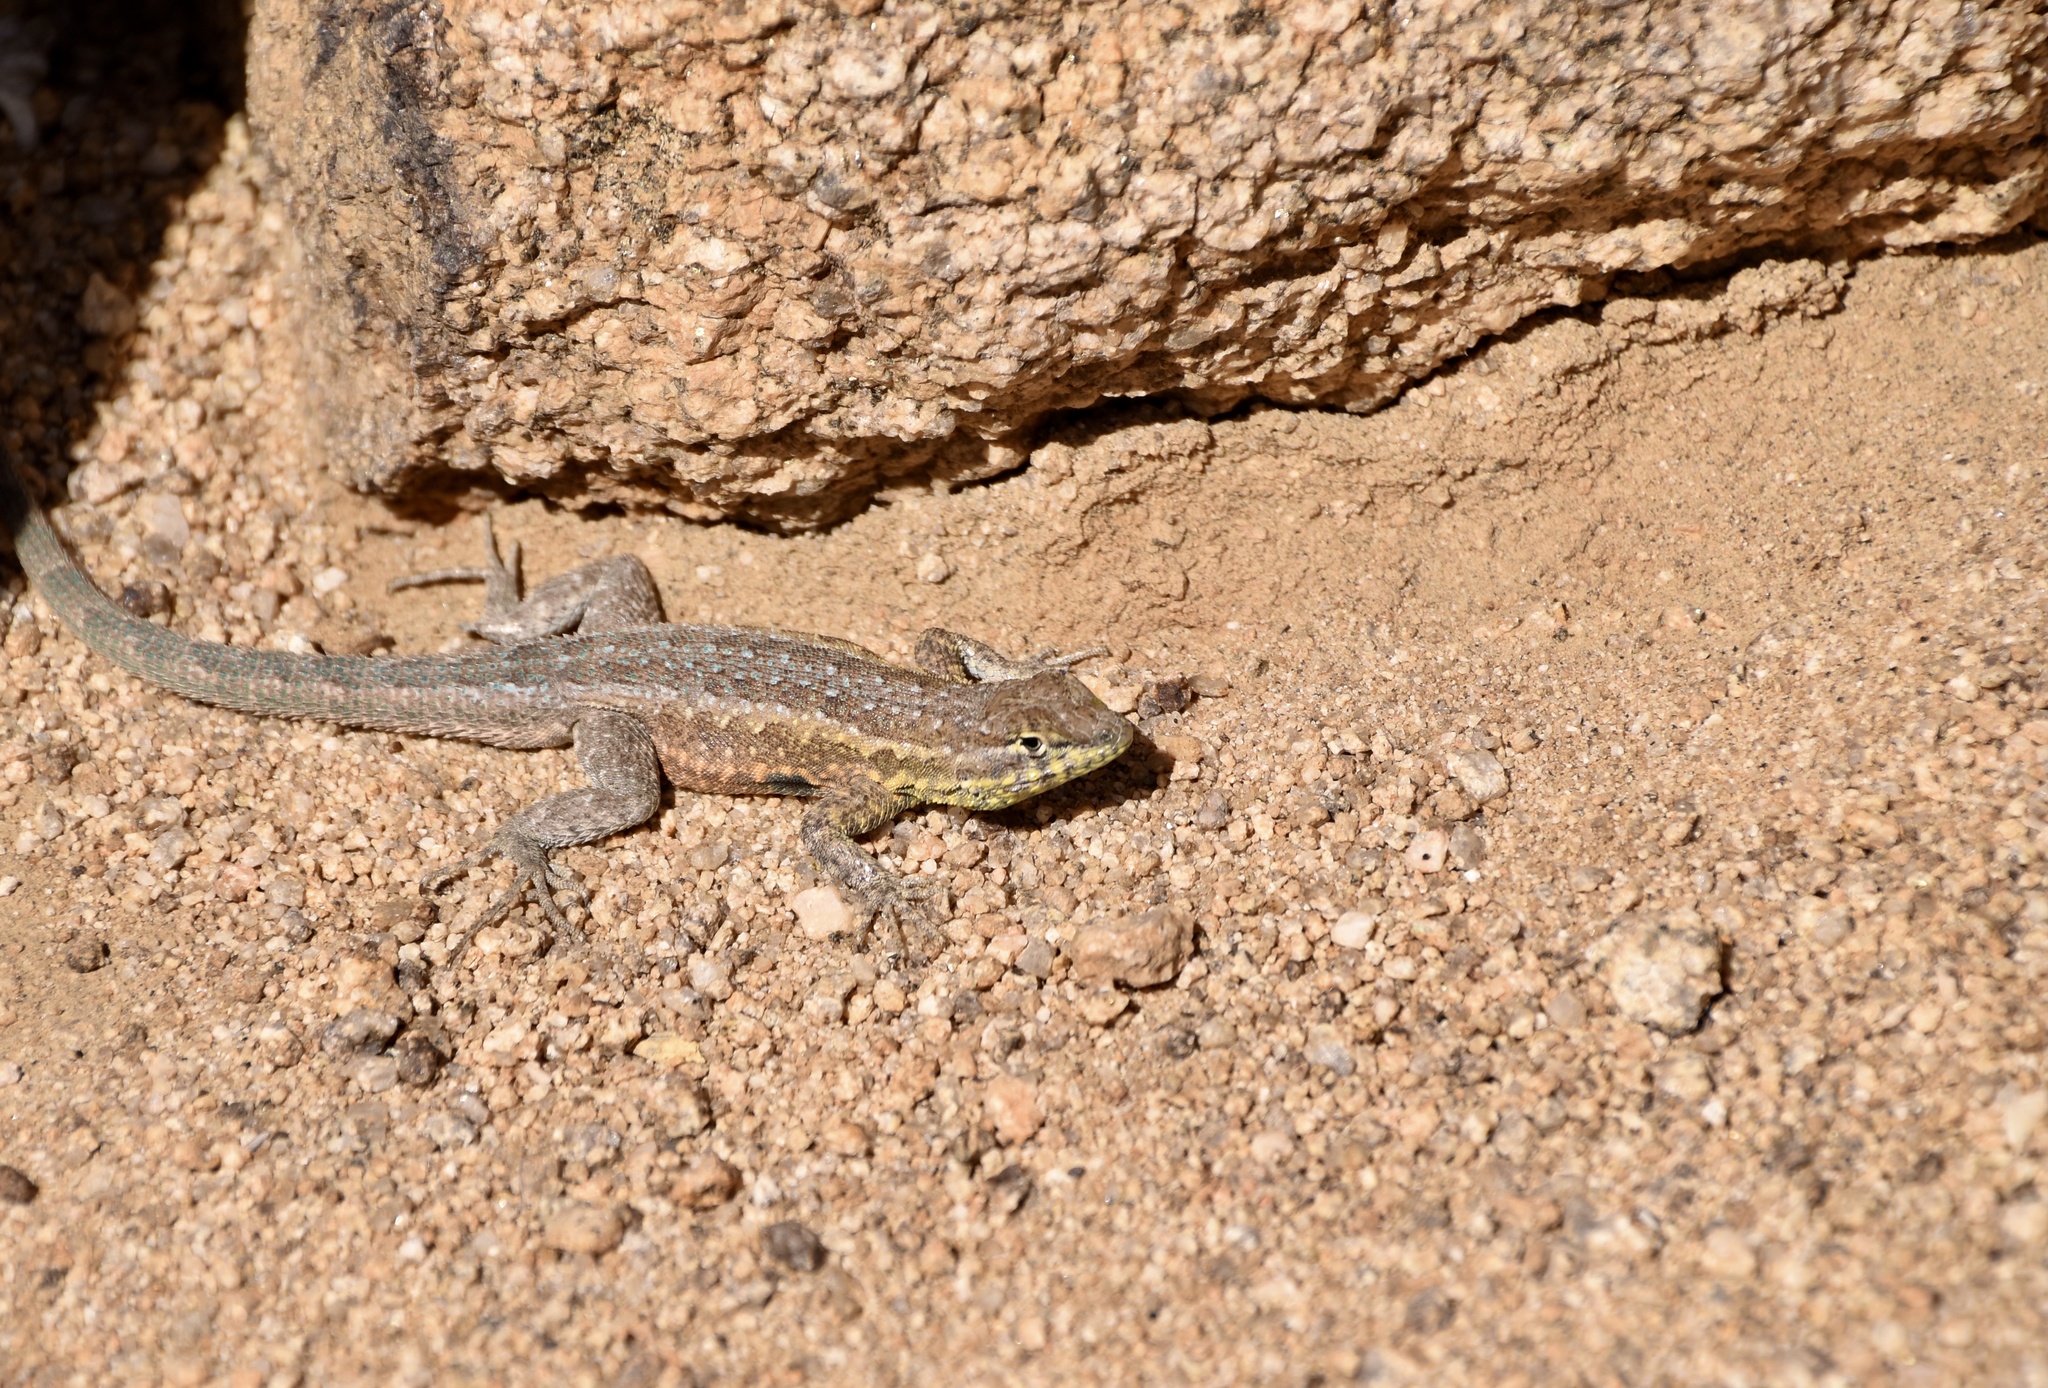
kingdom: Animalia
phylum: Chordata
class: Squamata
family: Phrynosomatidae
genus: Uta
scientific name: Uta stansburiana
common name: Side-blotched lizard
